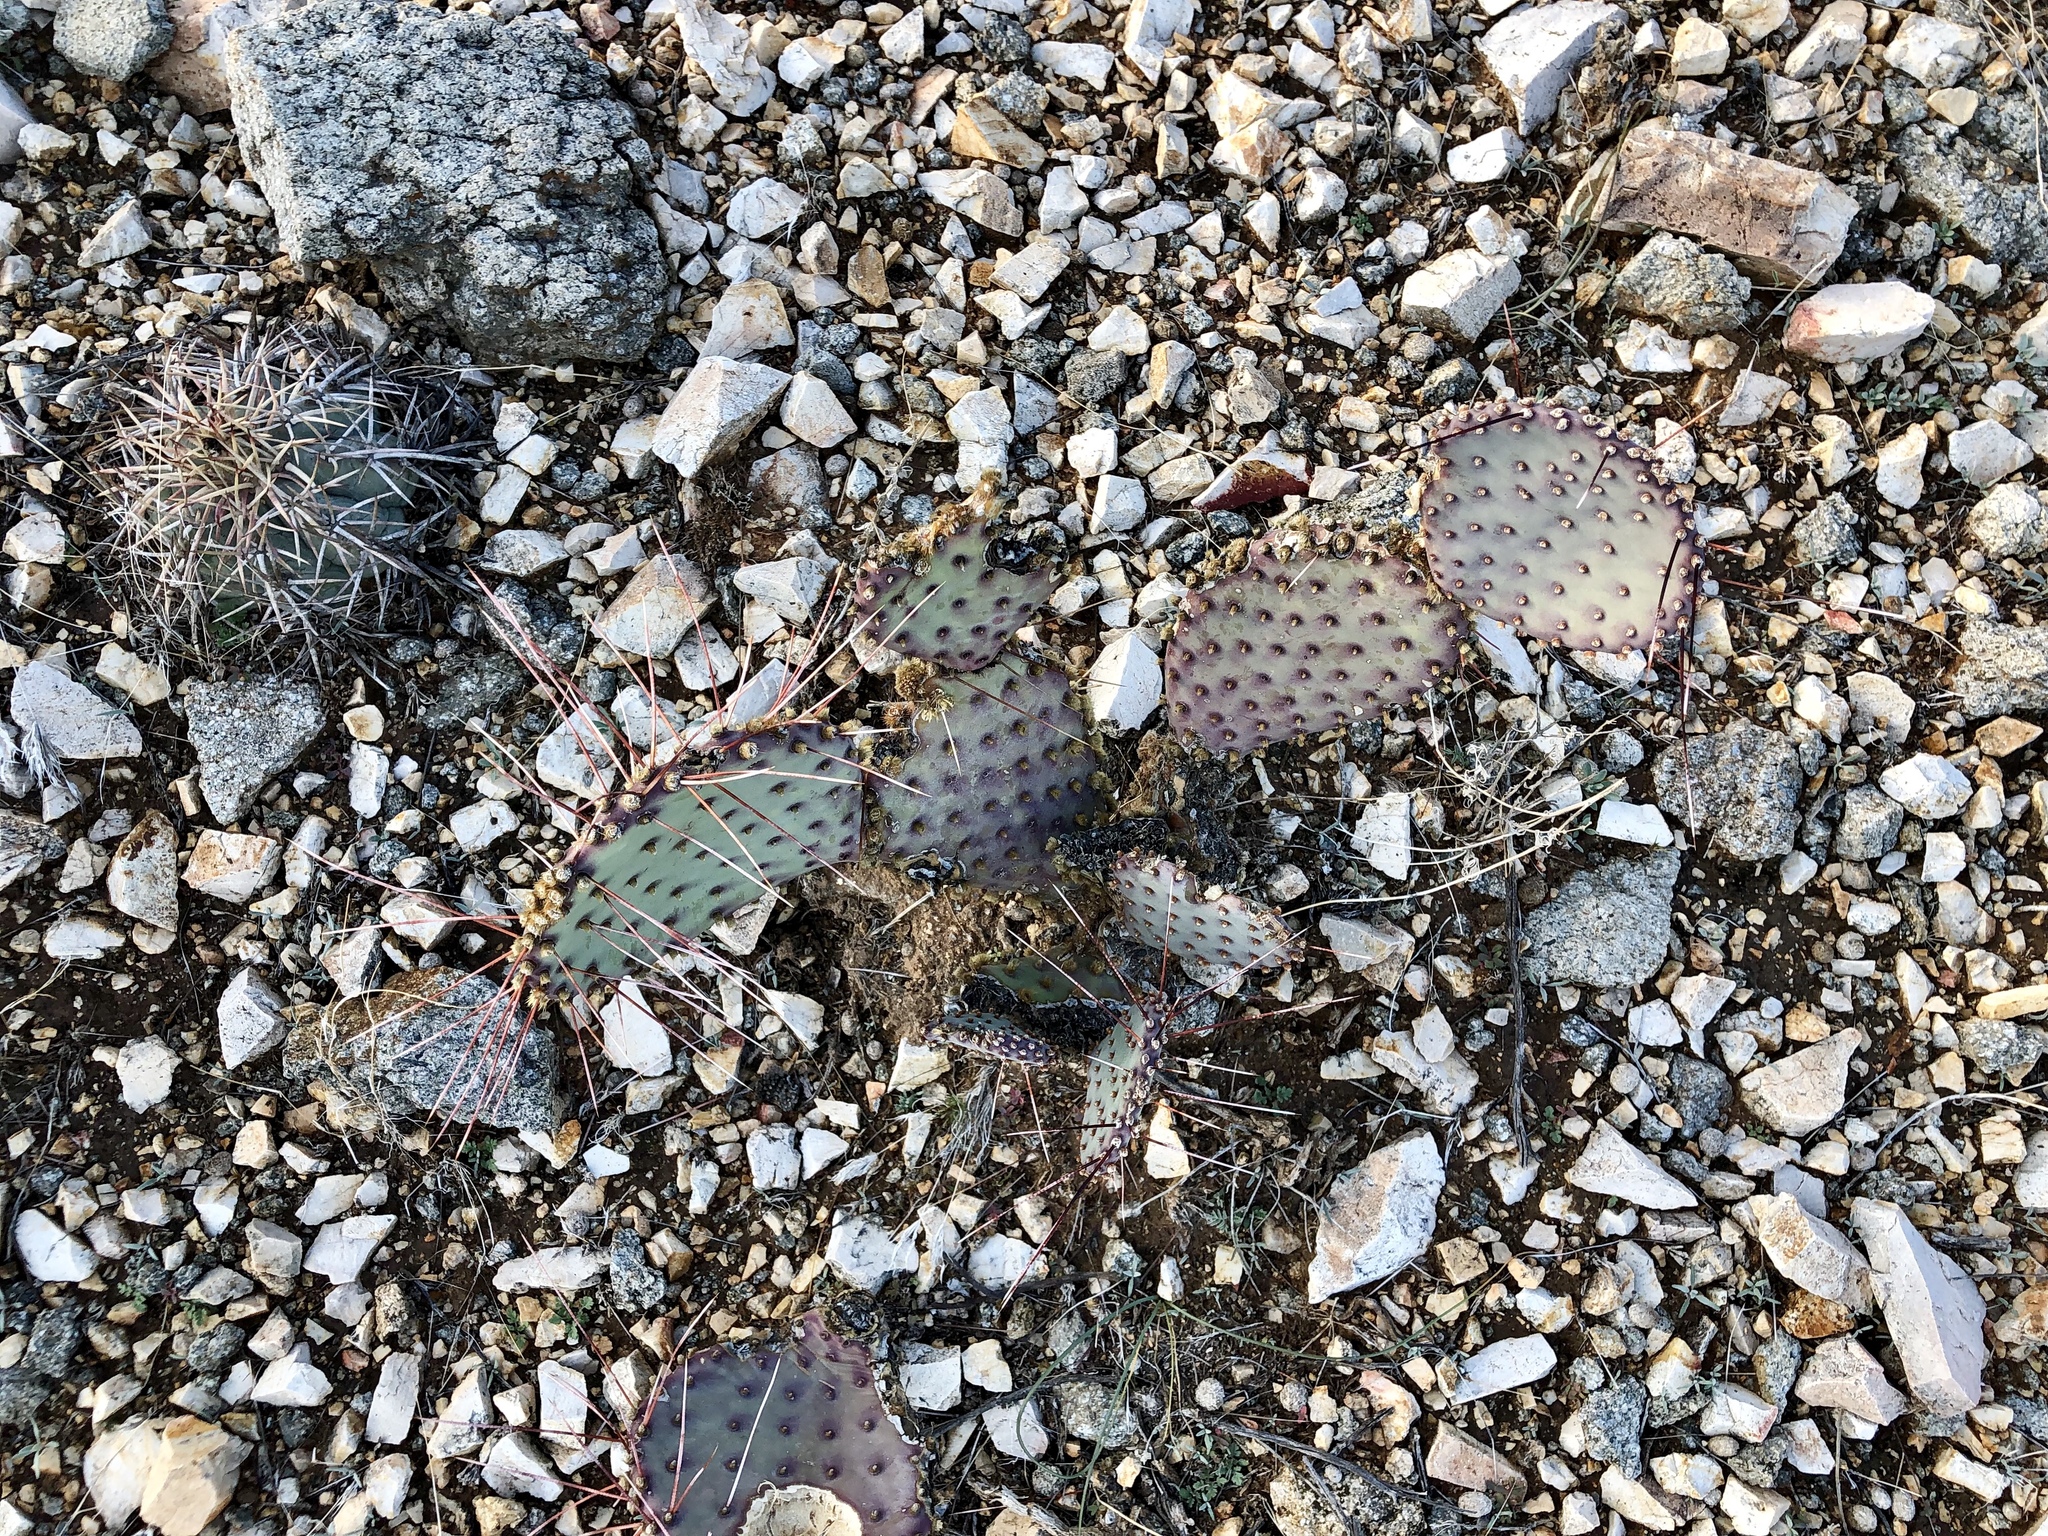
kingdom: Plantae
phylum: Tracheophyta
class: Magnoliopsida
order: Caryophyllales
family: Cactaceae
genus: Opuntia
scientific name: Opuntia macrocentra
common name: Purple prickly-pear
